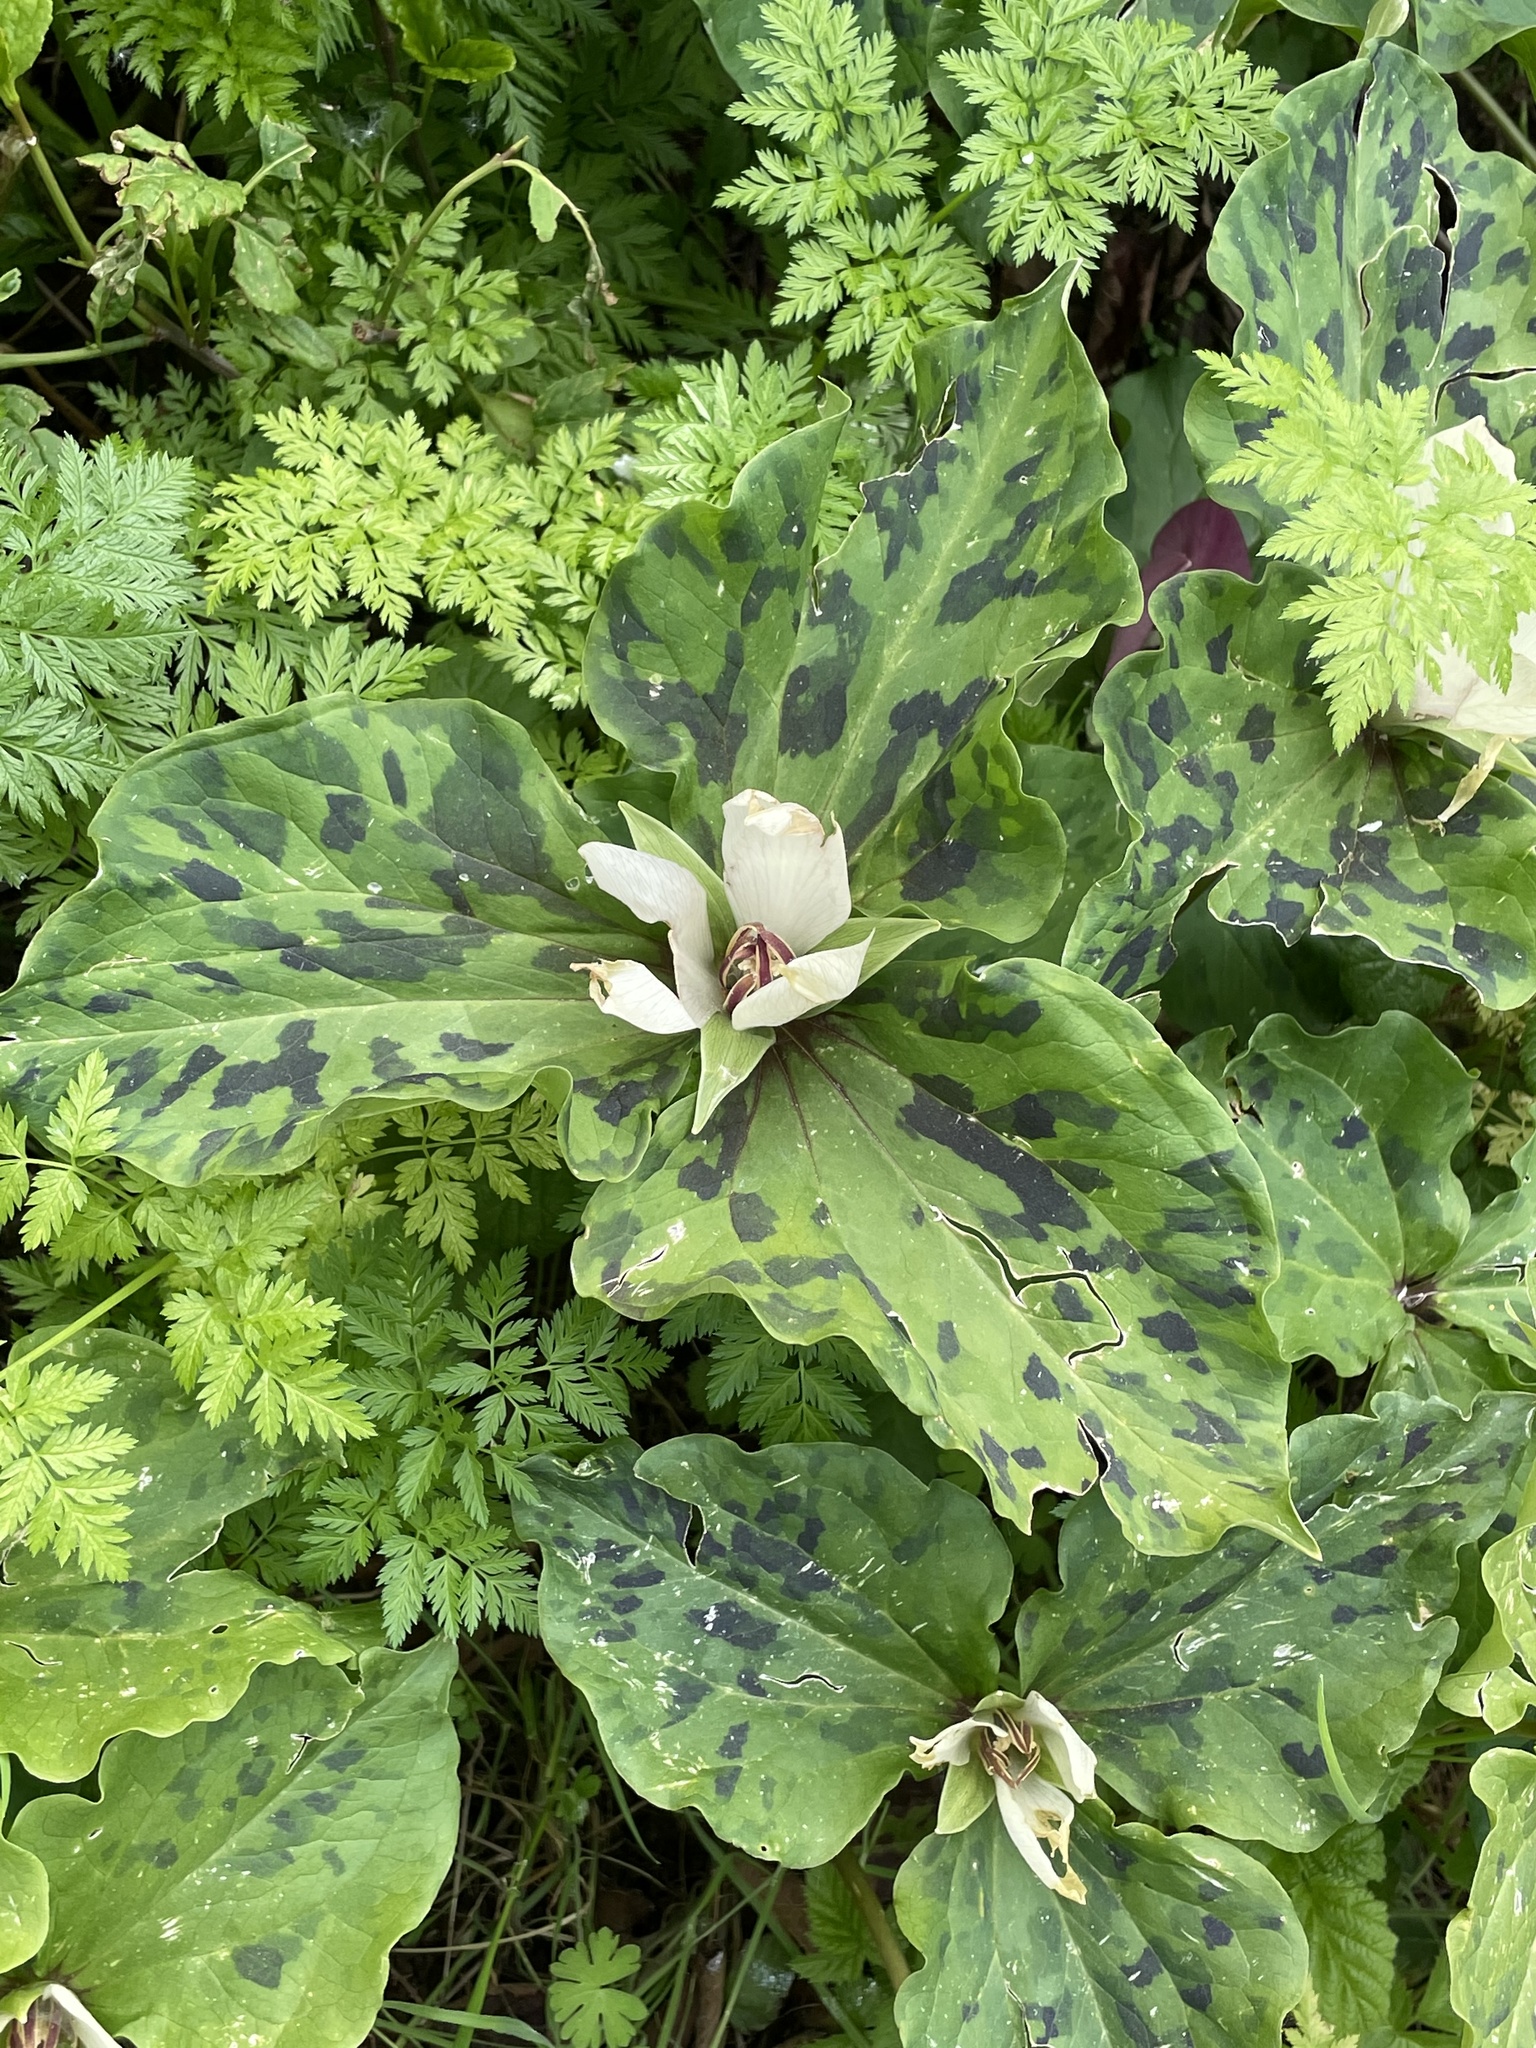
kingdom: Plantae
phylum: Tracheophyta
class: Liliopsida
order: Liliales
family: Melanthiaceae
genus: Trillium
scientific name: Trillium chloropetalum
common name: Giant trillium
